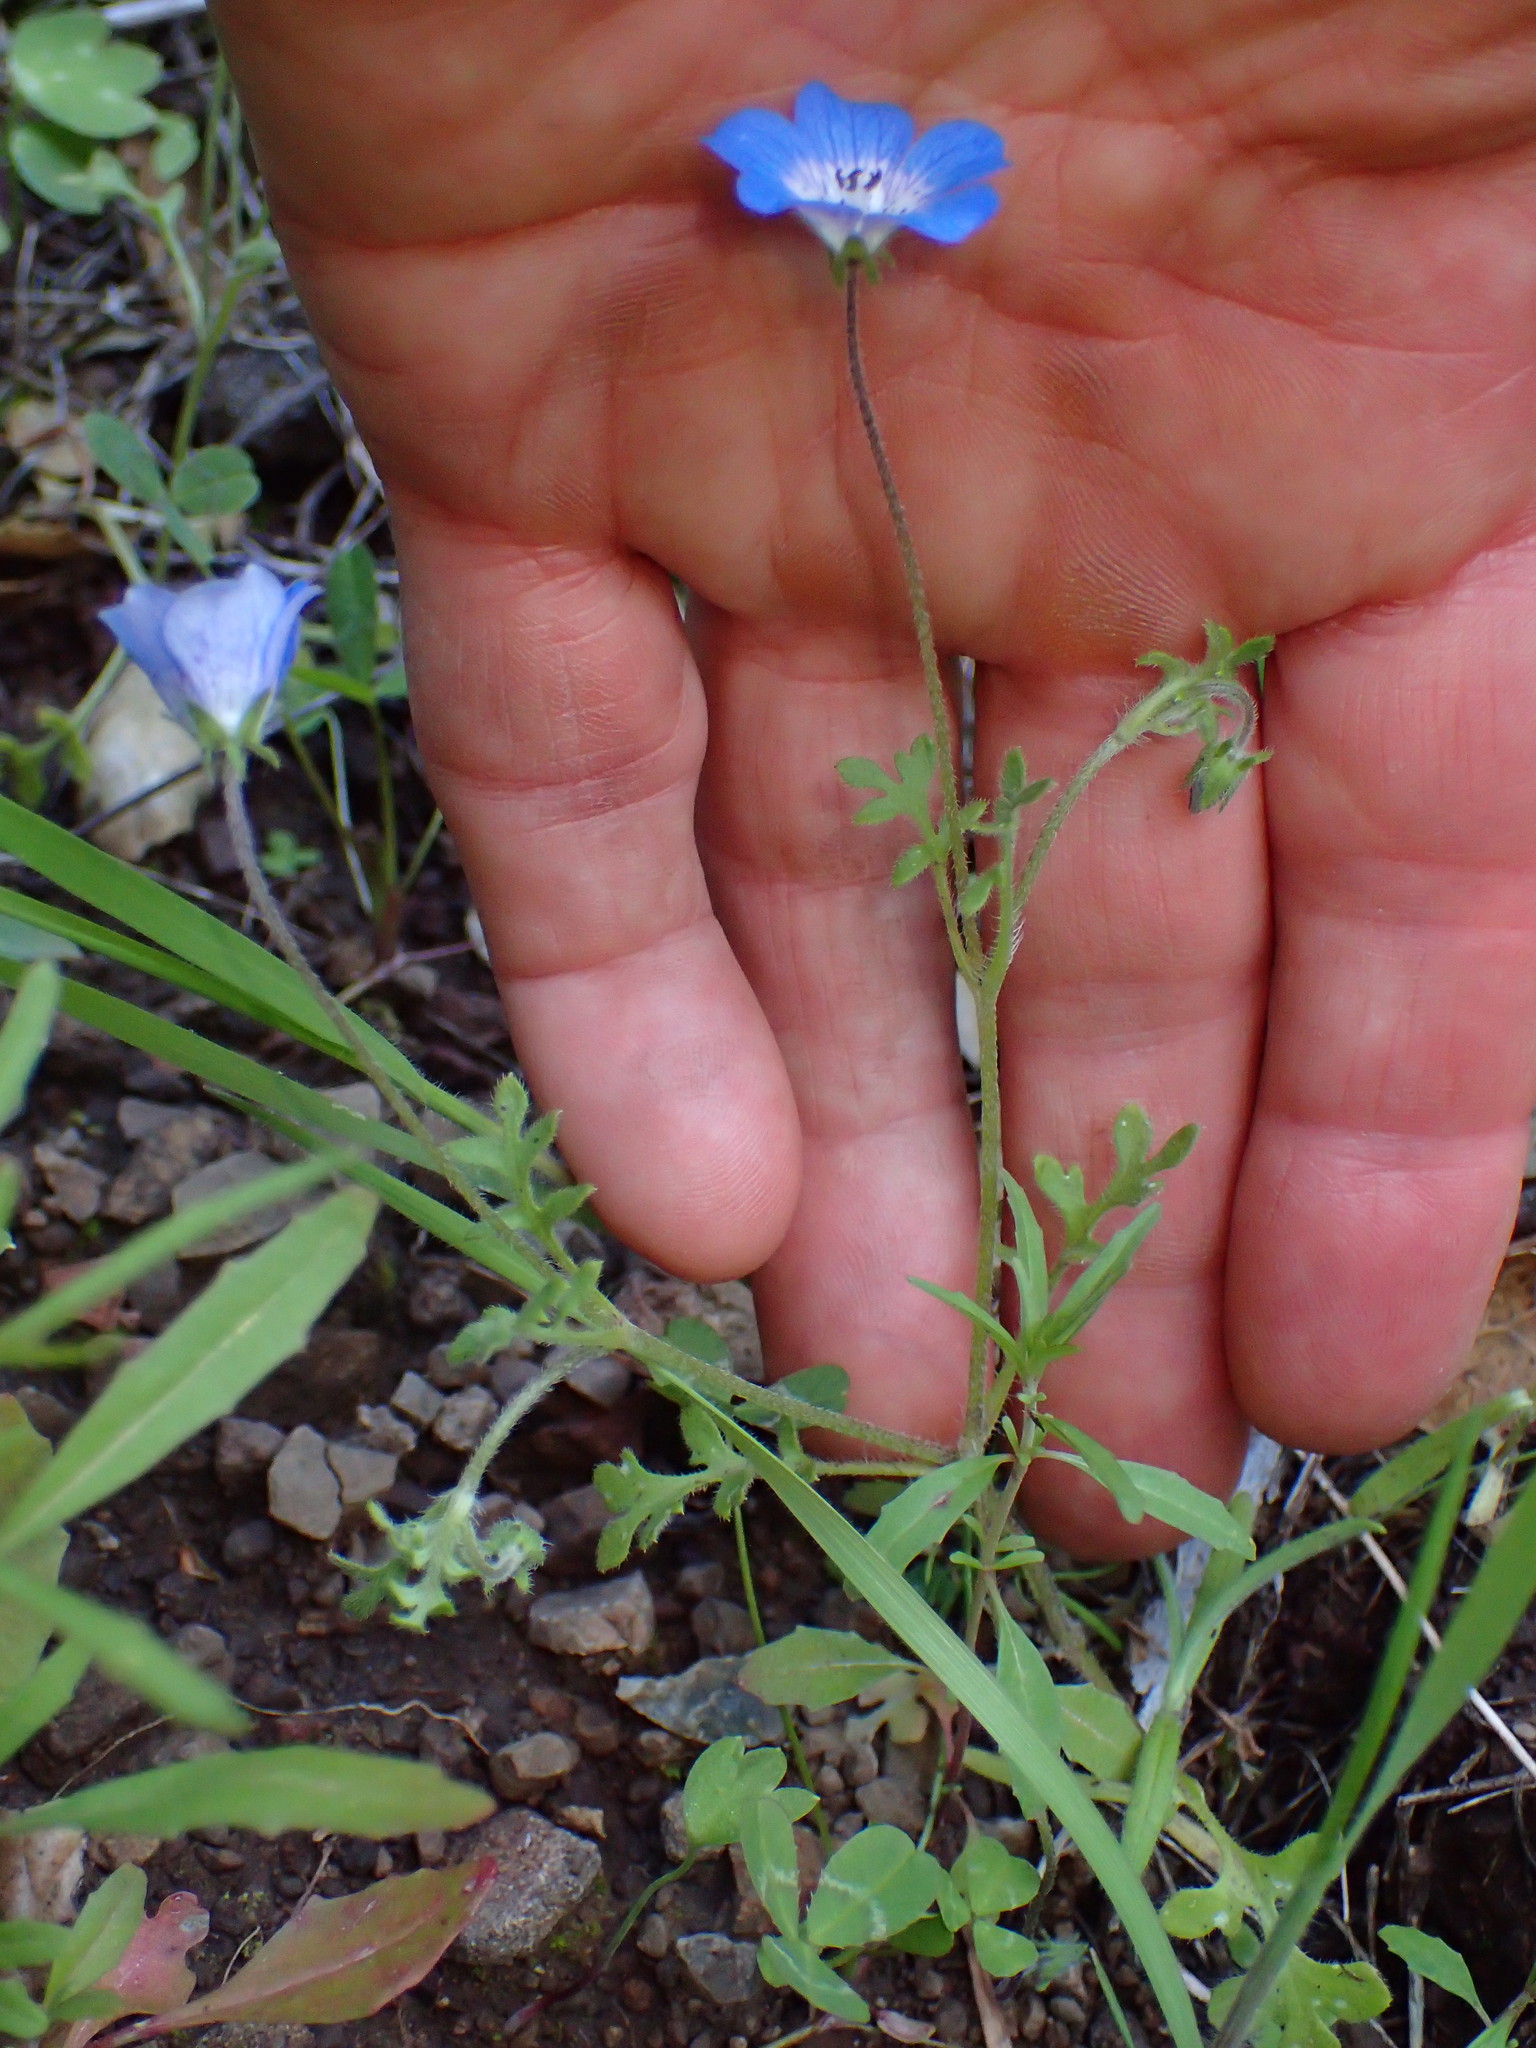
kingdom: Plantae
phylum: Tracheophyta
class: Magnoliopsida
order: Boraginales
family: Hydrophyllaceae
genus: Nemophila
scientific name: Nemophila menziesii
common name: Baby's-blue-eyes
